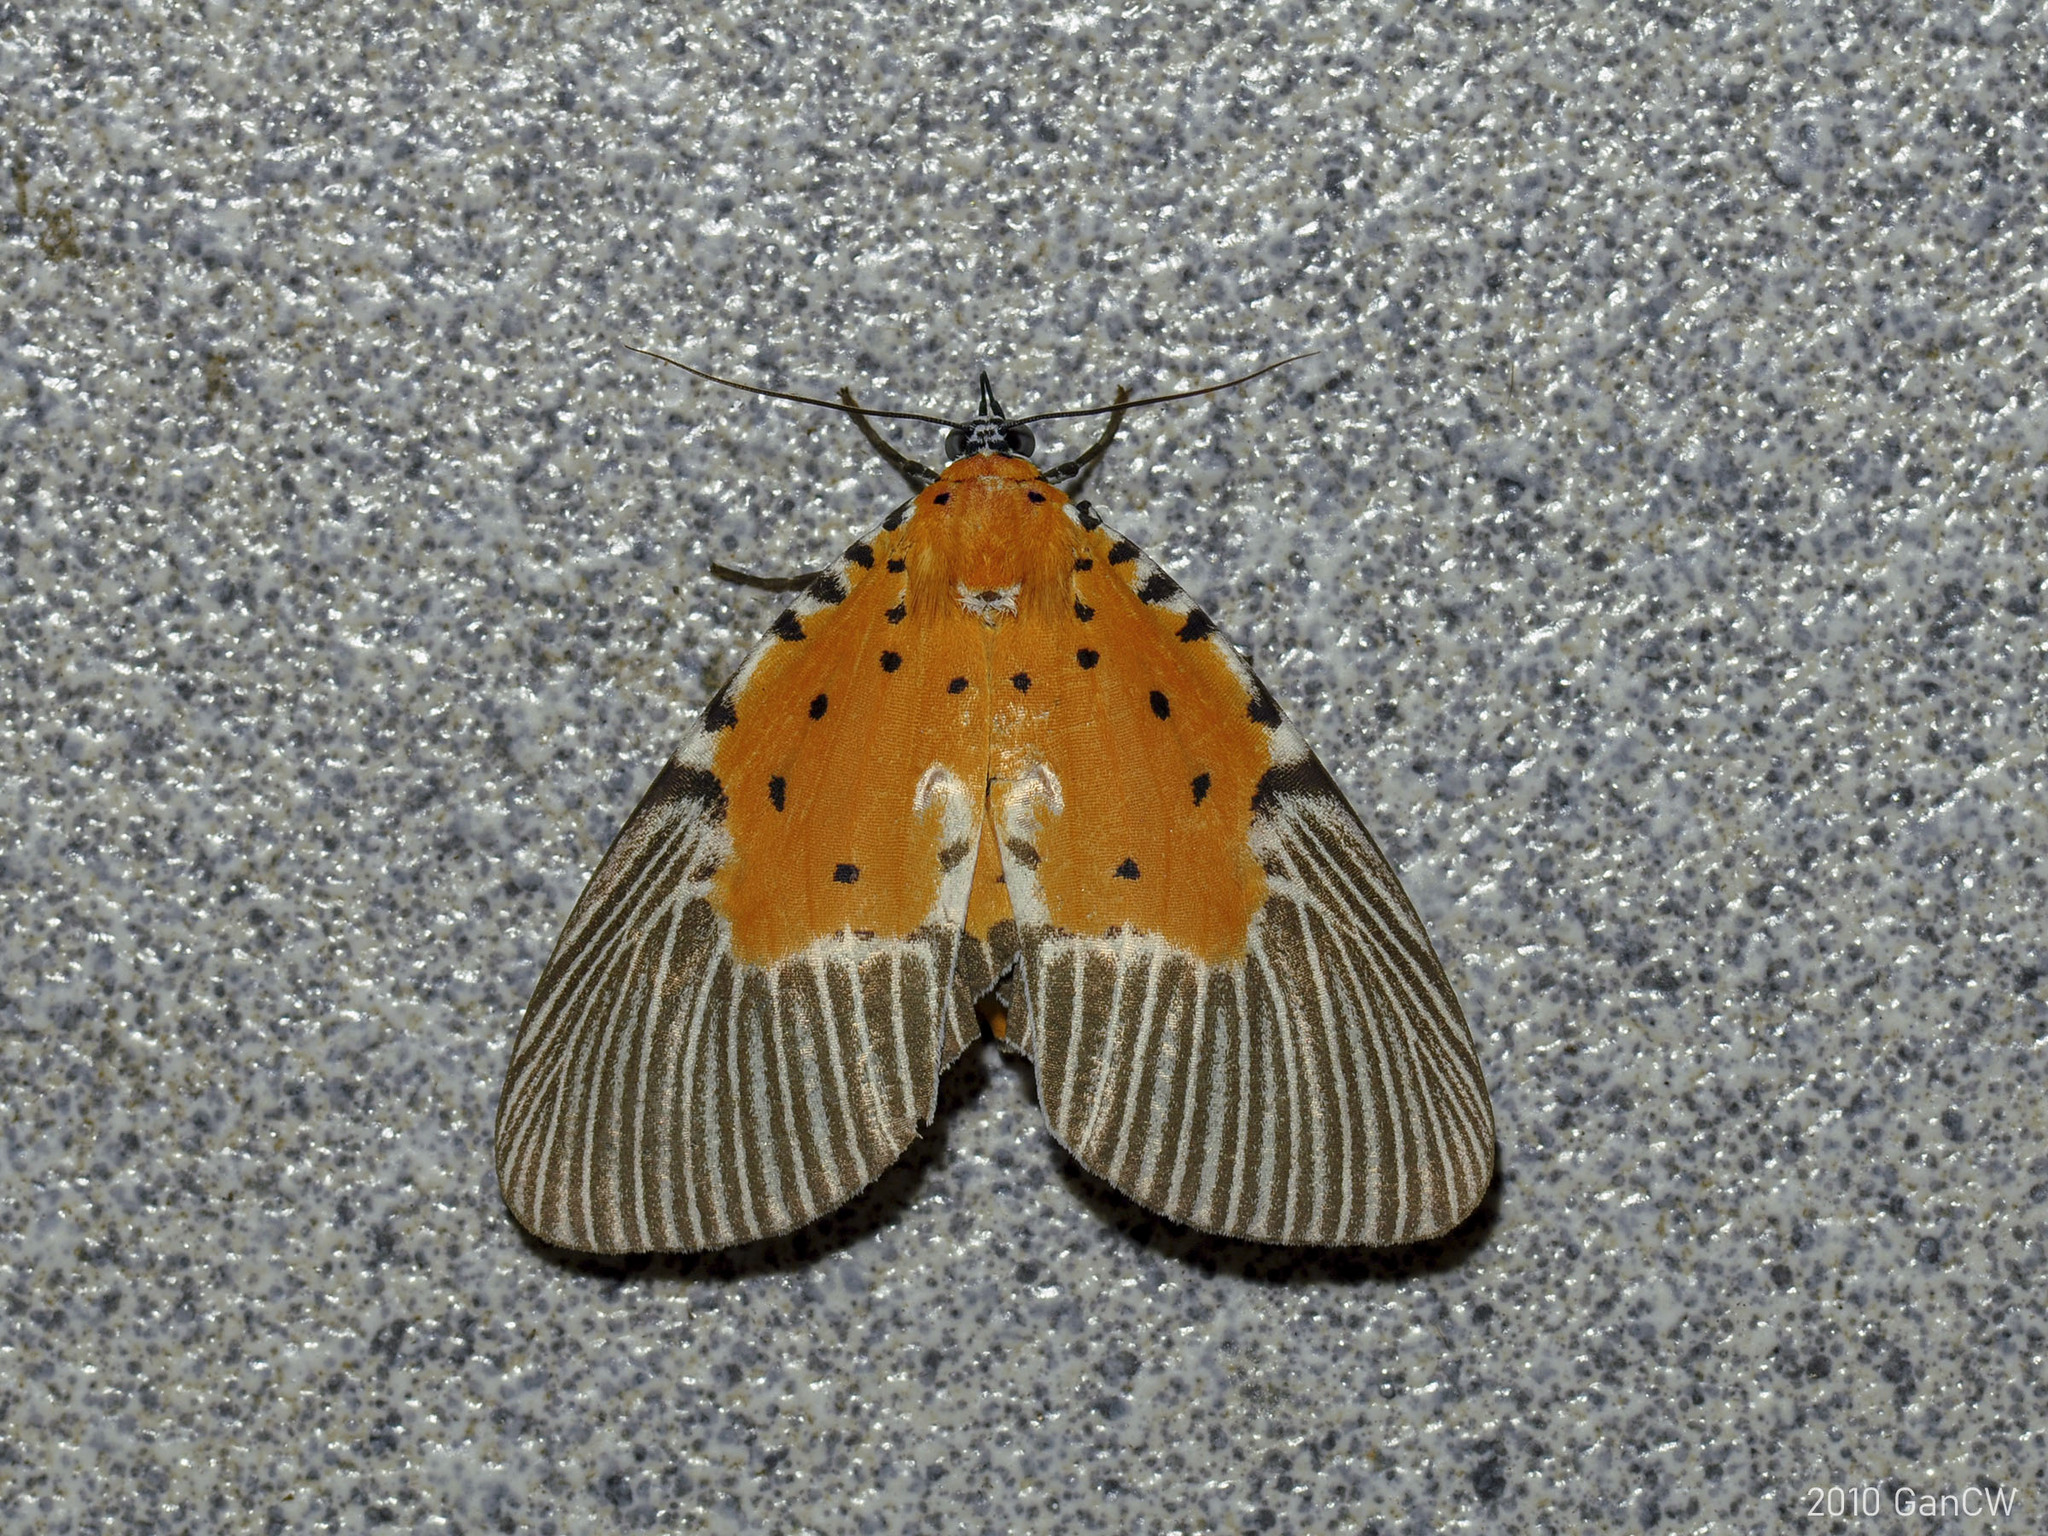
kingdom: Animalia
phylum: Arthropoda
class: Insecta
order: Lepidoptera
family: Erebidae
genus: Peridrome
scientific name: Peridrome orbicularis
